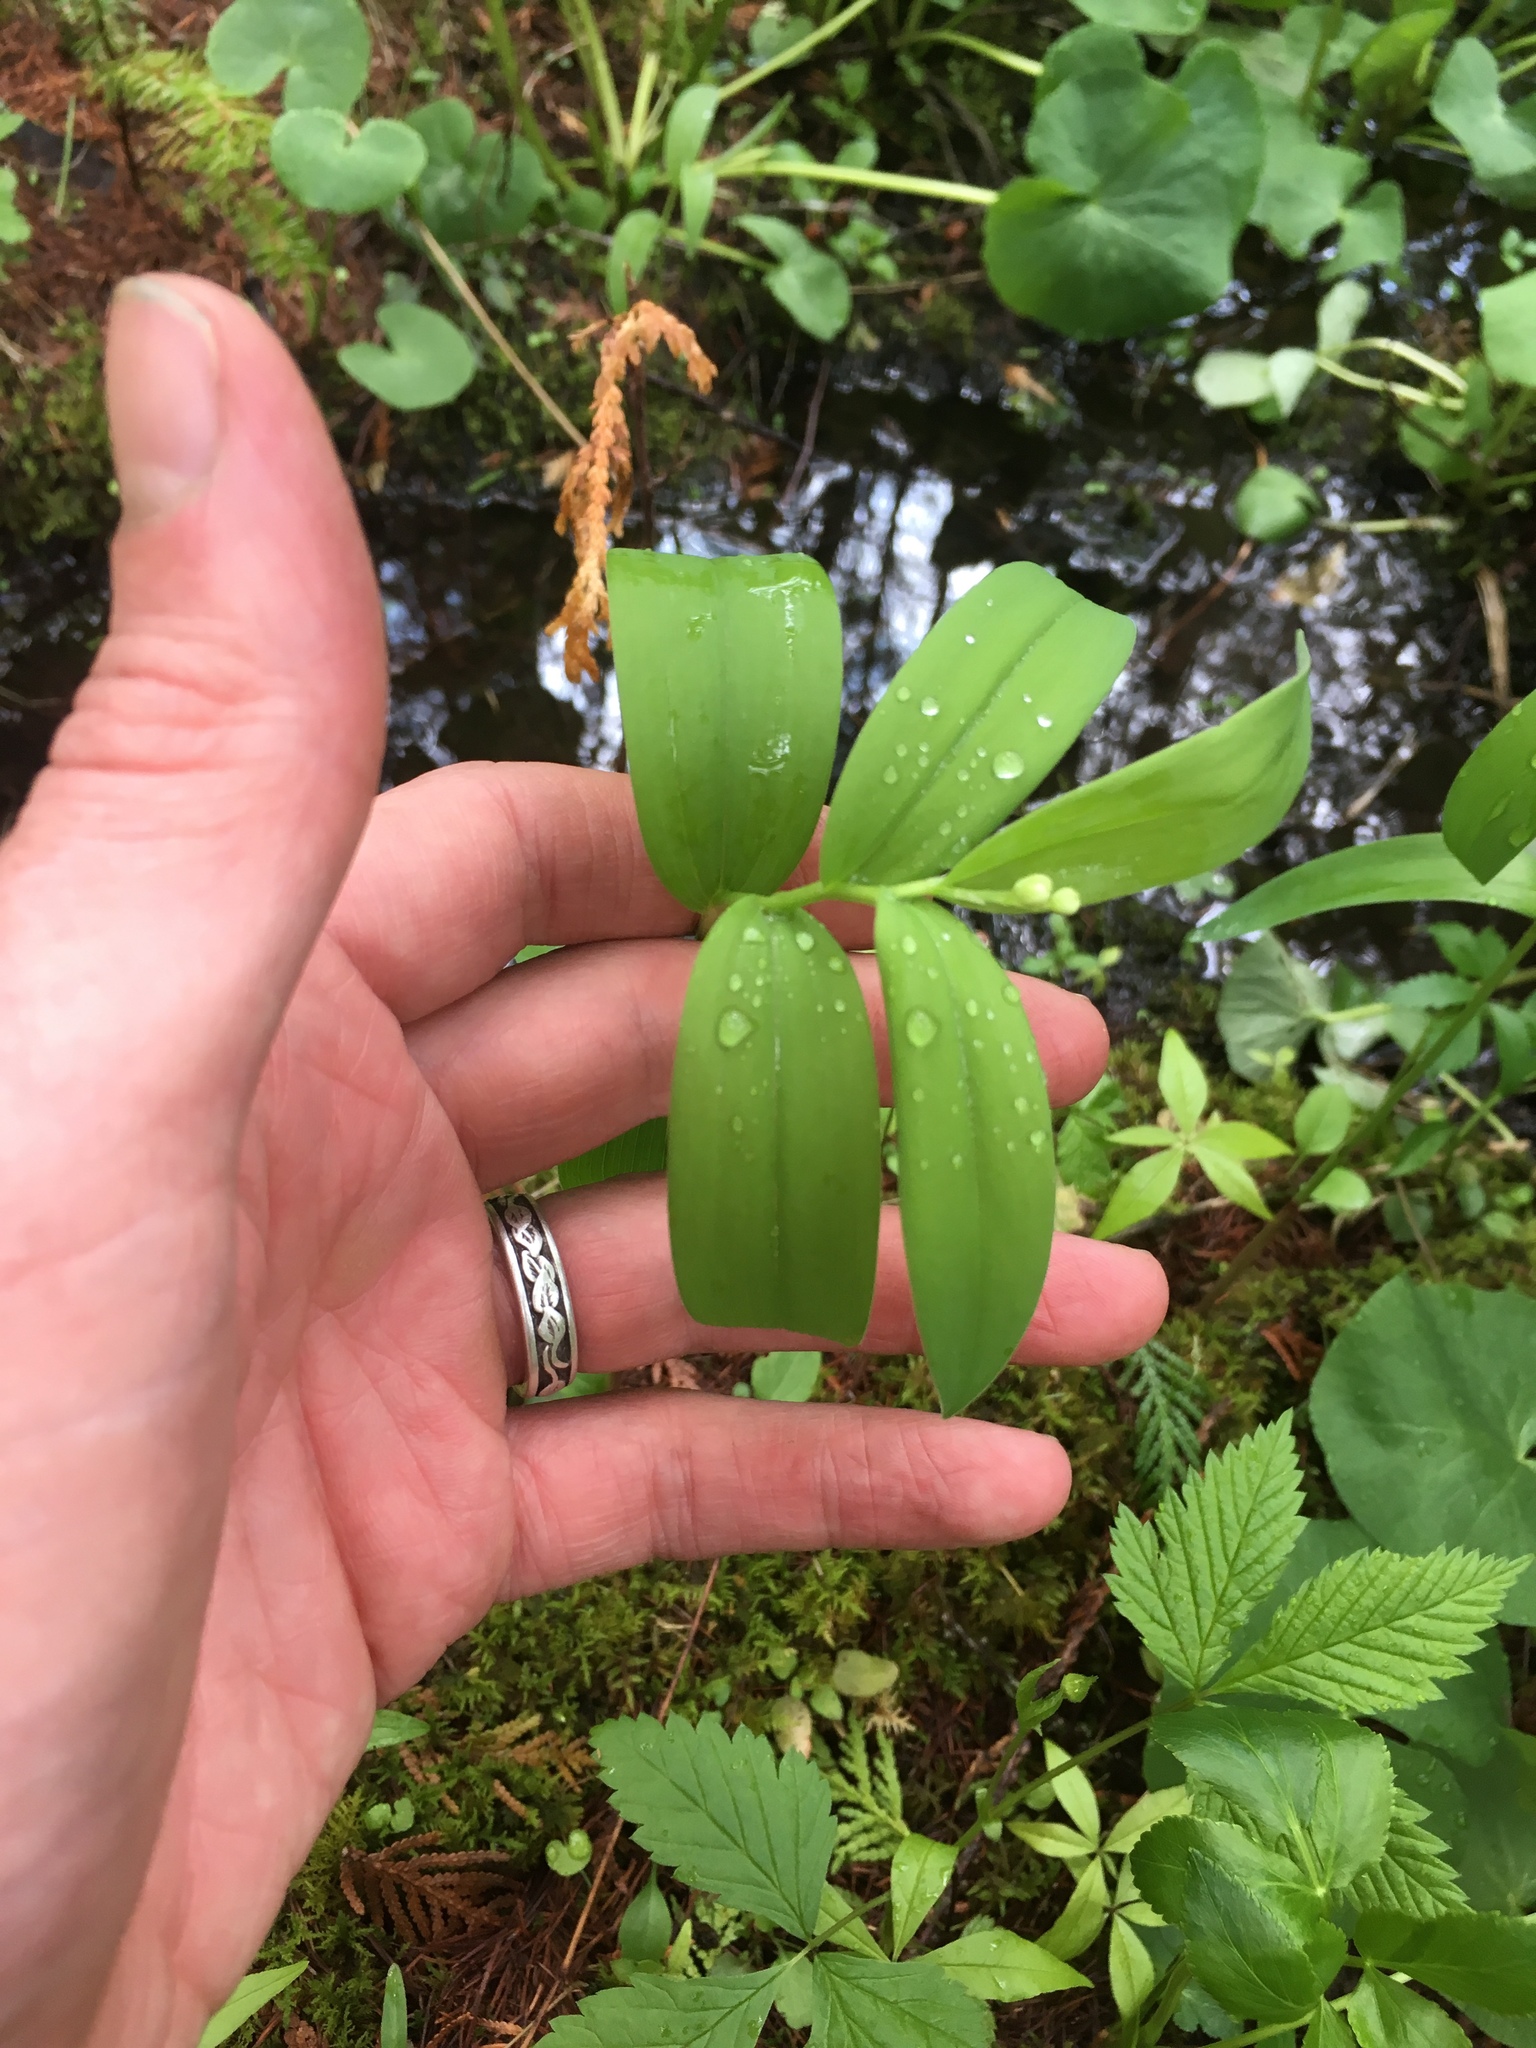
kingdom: Plantae
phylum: Tracheophyta
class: Liliopsida
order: Asparagales
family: Asparagaceae
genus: Maianthemum
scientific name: Maianthemum stellatum
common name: Little false solomon's seal
